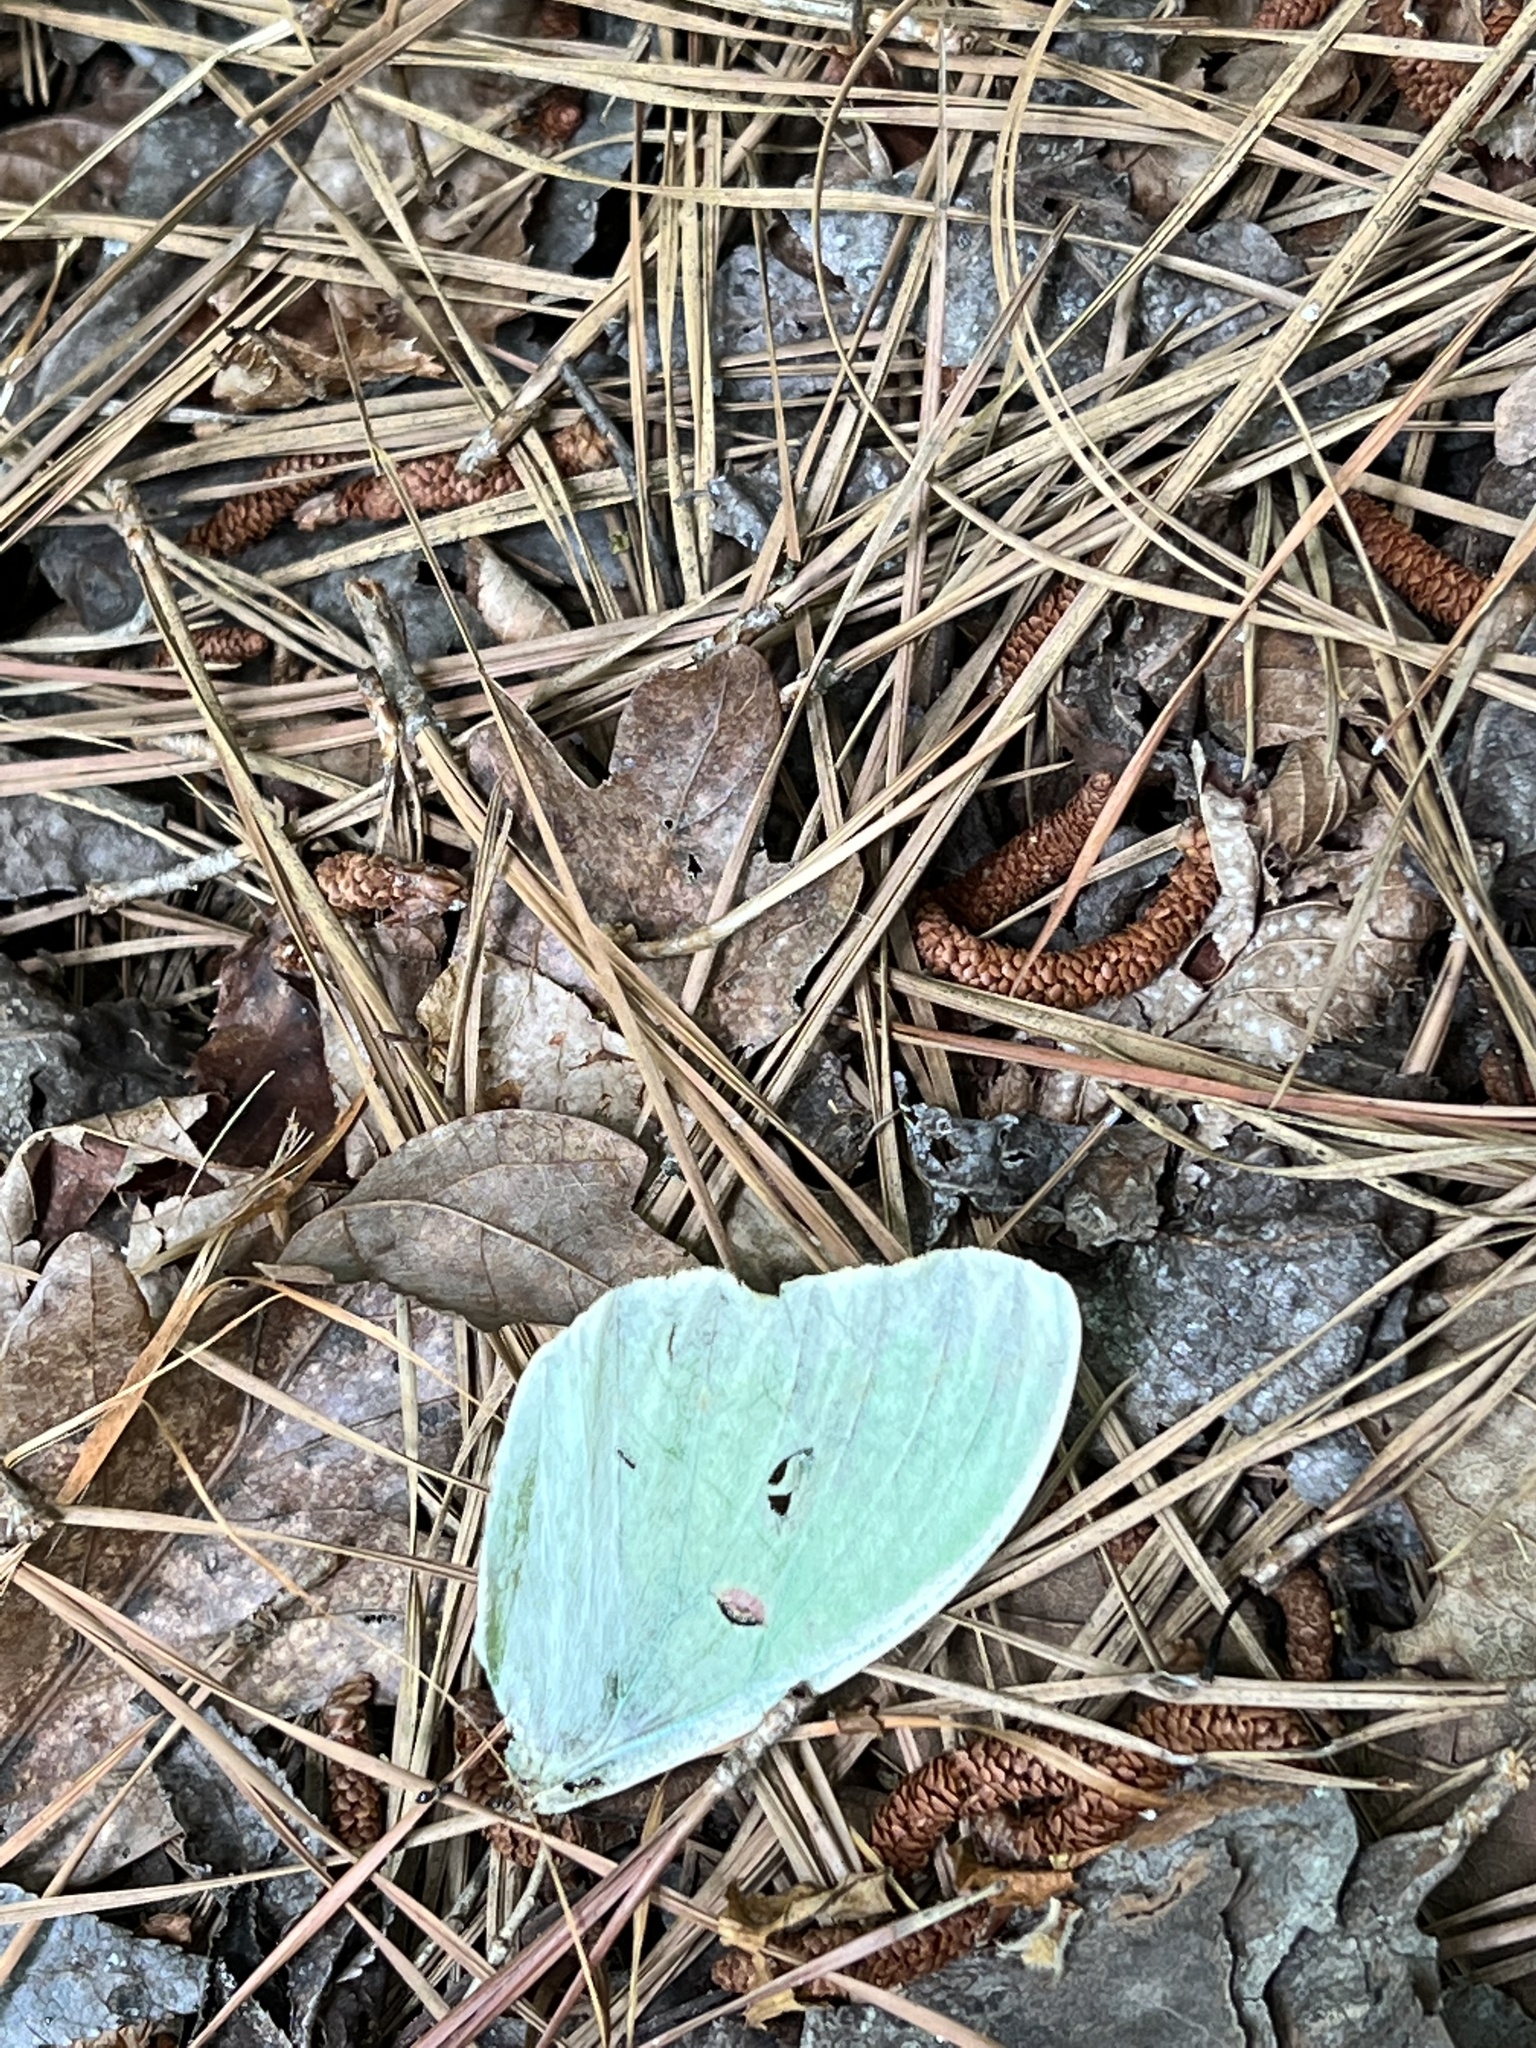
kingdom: Animalia
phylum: Arthropoda
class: Insecta
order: Lepidoptera
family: Saturniidae
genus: Actias
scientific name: Actias luna
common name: Luna moth
